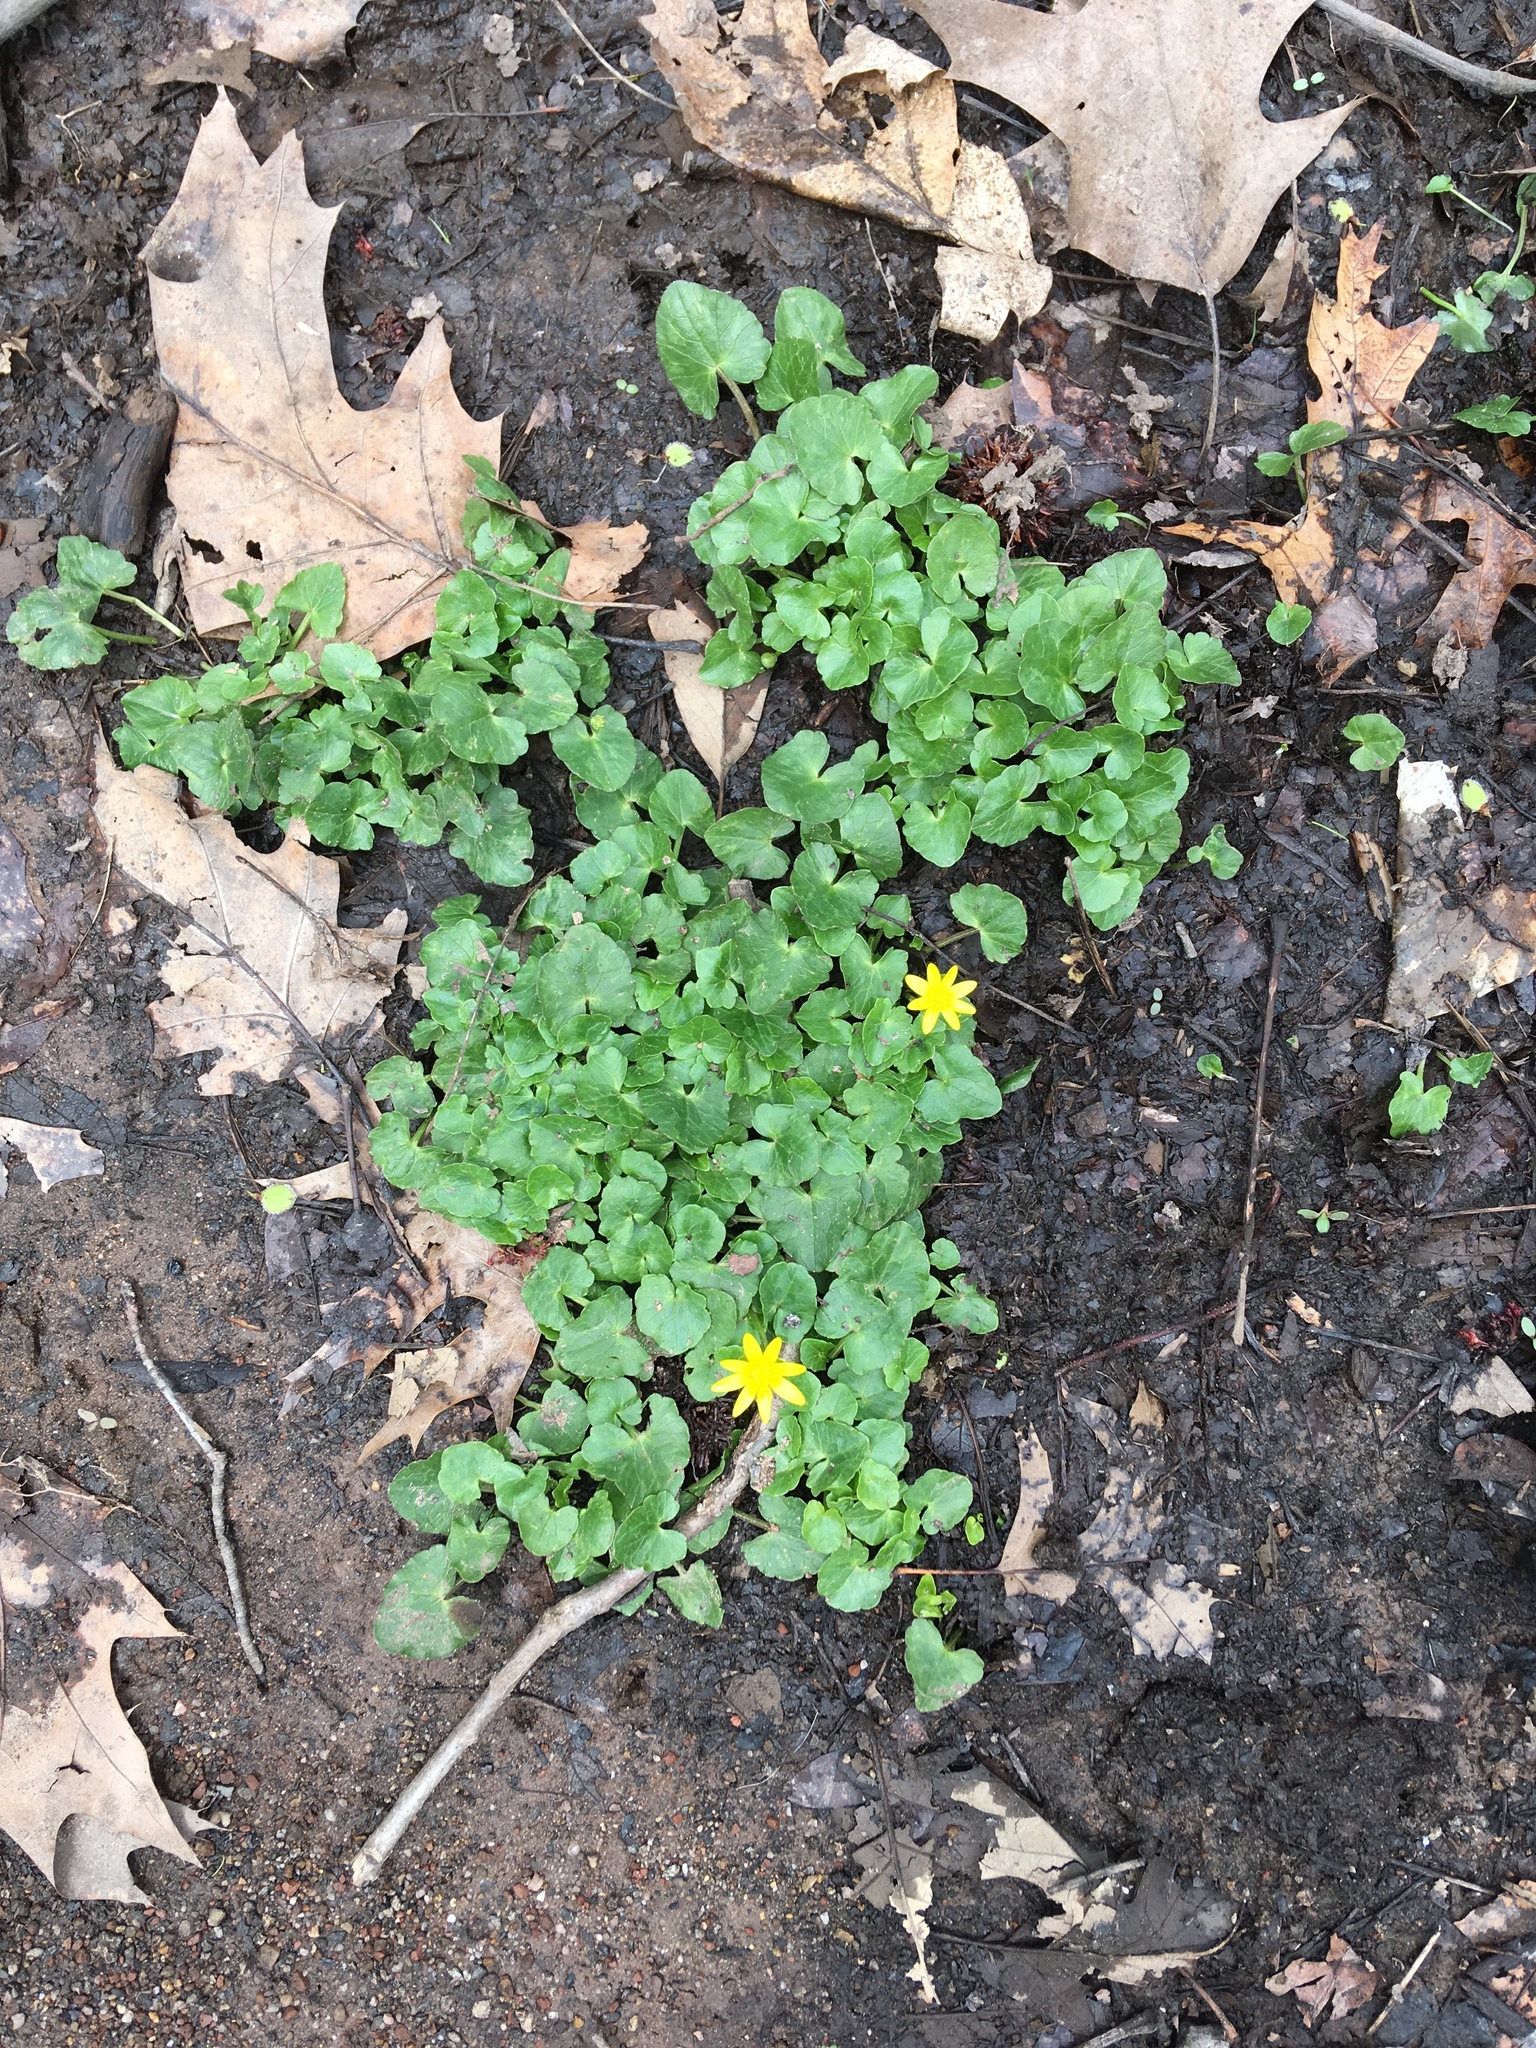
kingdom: Plantae
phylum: Tracheophyta
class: Magnoliopsida
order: Ranunculales
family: Ranunculaceae
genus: Ficaria
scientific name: Ficaria verna
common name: Lesser celandine
